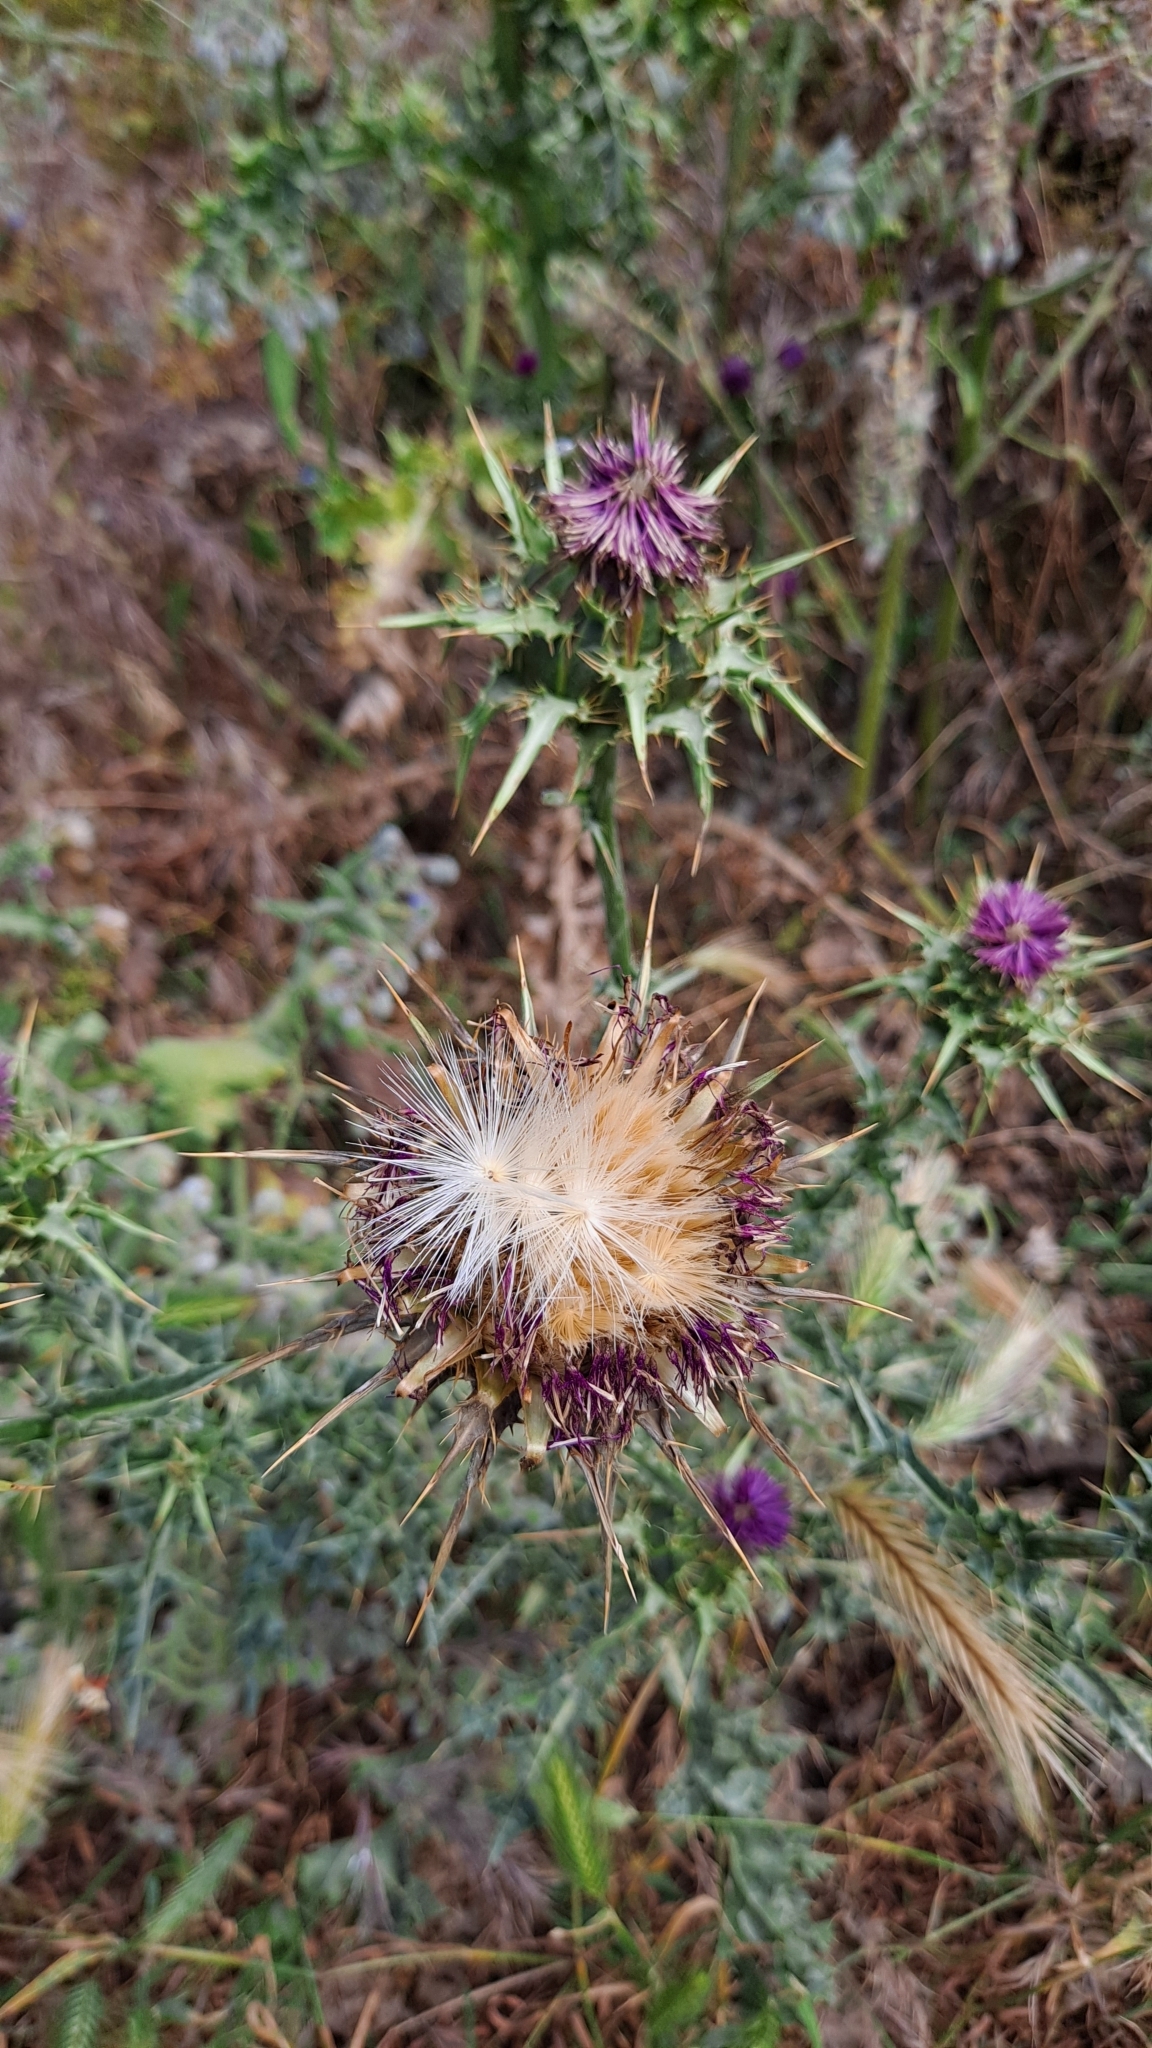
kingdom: Plantae
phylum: Tracheophyta
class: Magnoliopsida
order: Asterales
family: Asteraceae
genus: Silybum
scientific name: Silybum marianum
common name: Milk thistle
